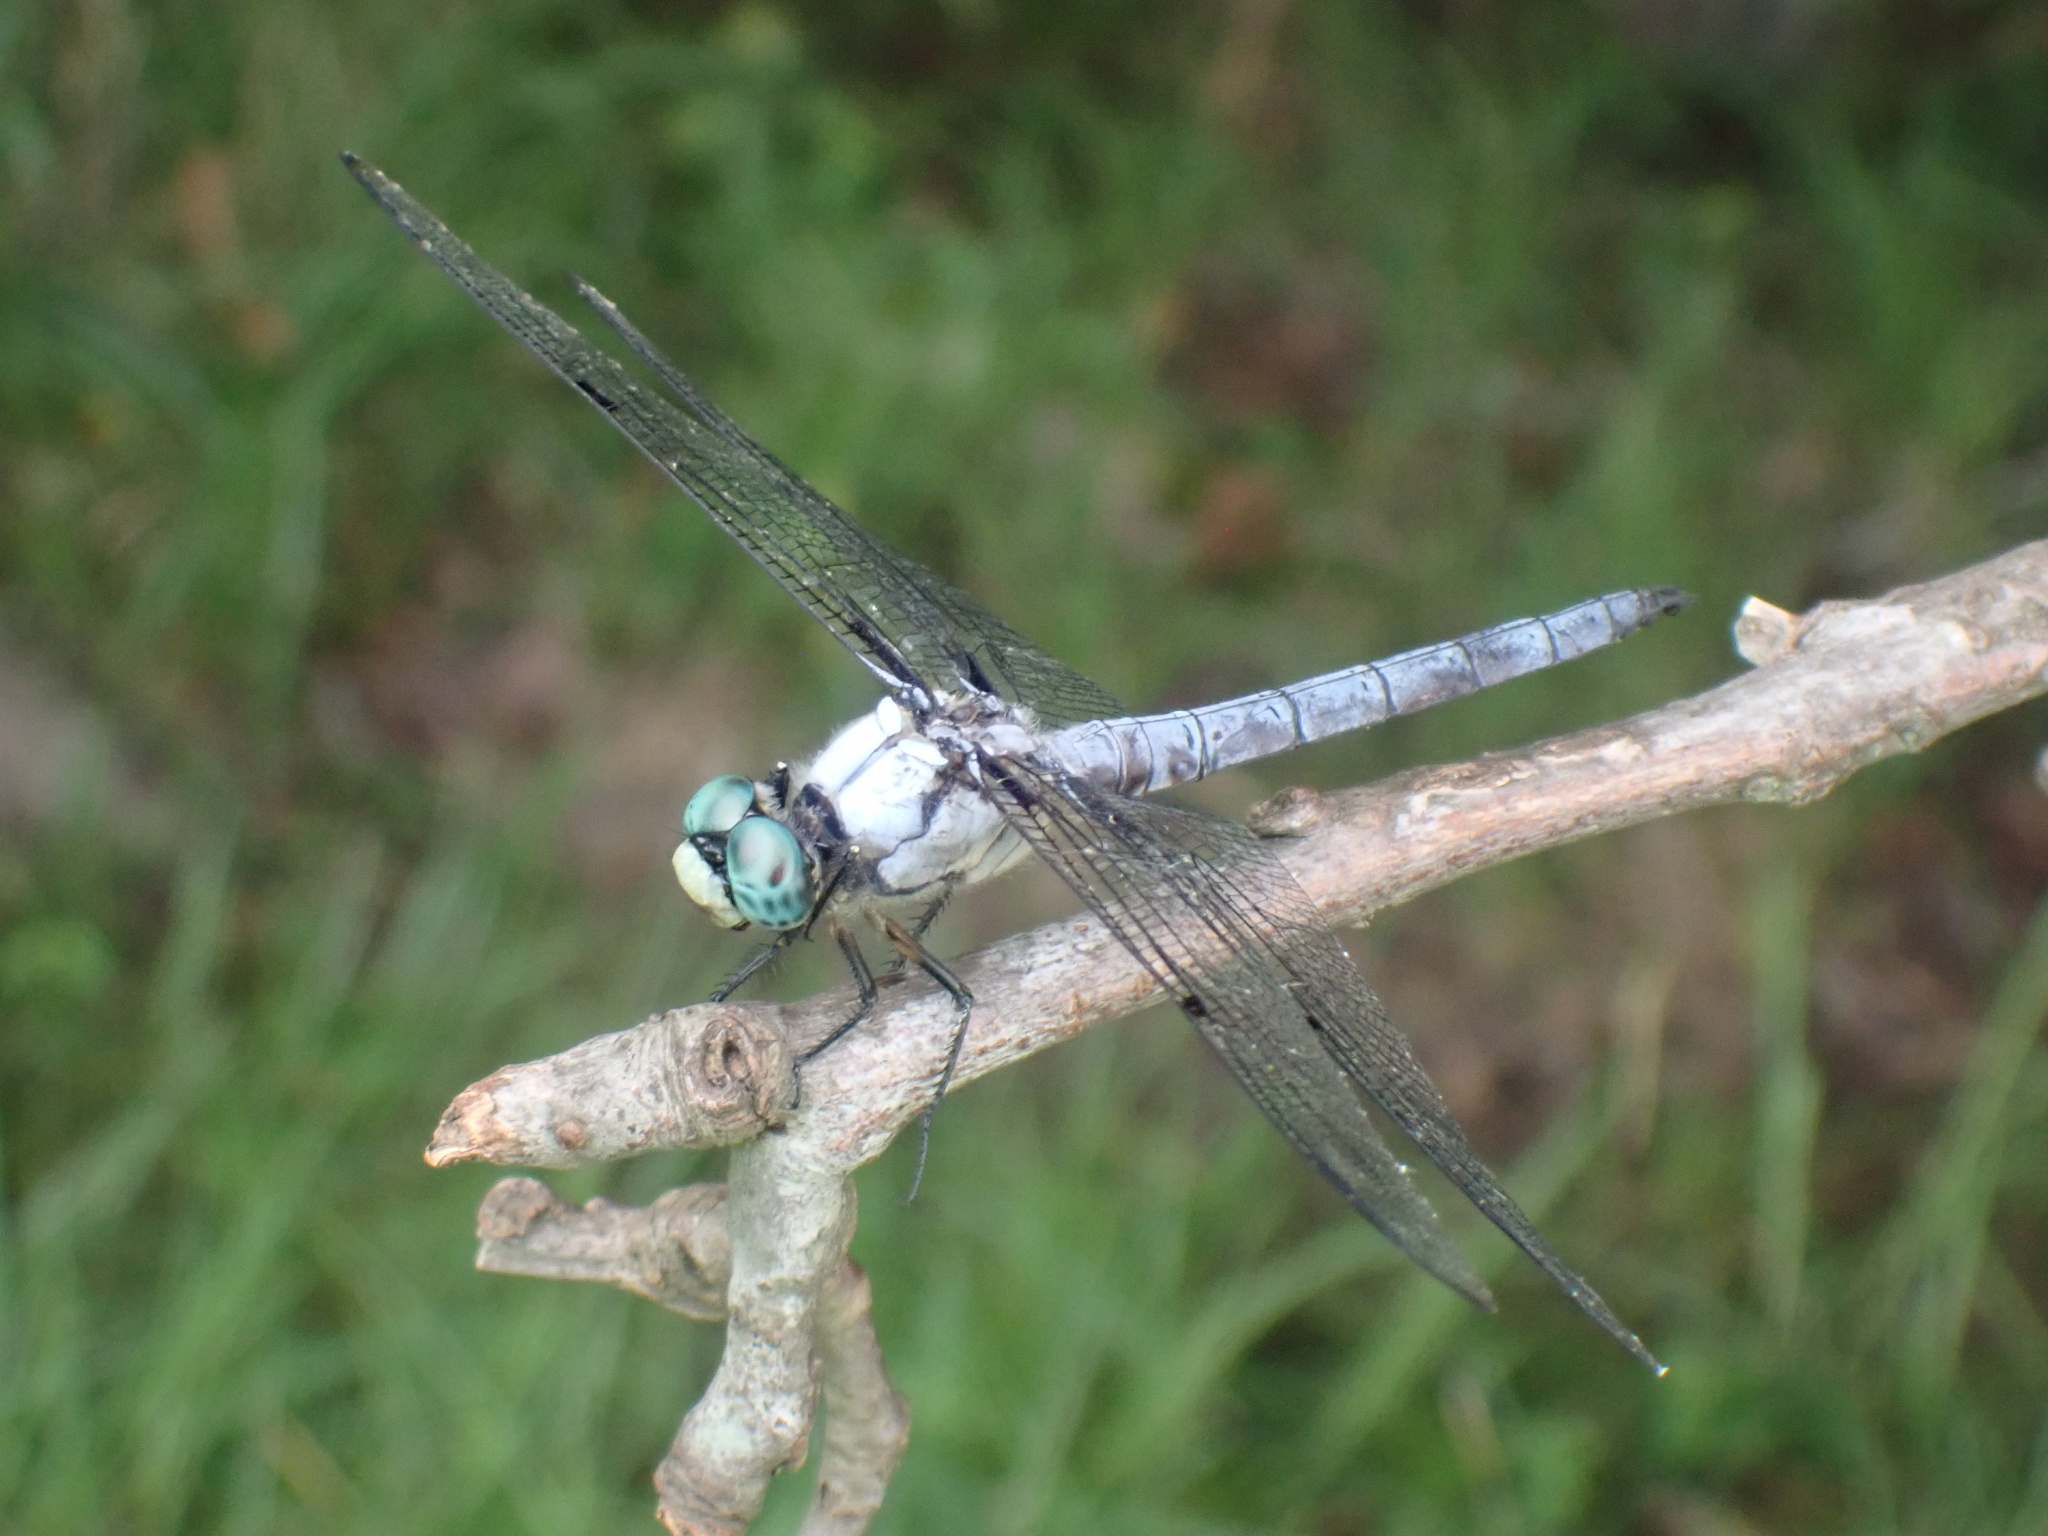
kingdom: Animalia
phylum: Arthropoda
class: Insecta
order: Odonata
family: Libellulidae
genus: Libellula
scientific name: Libellula vibrans
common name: Great blue skimmer
